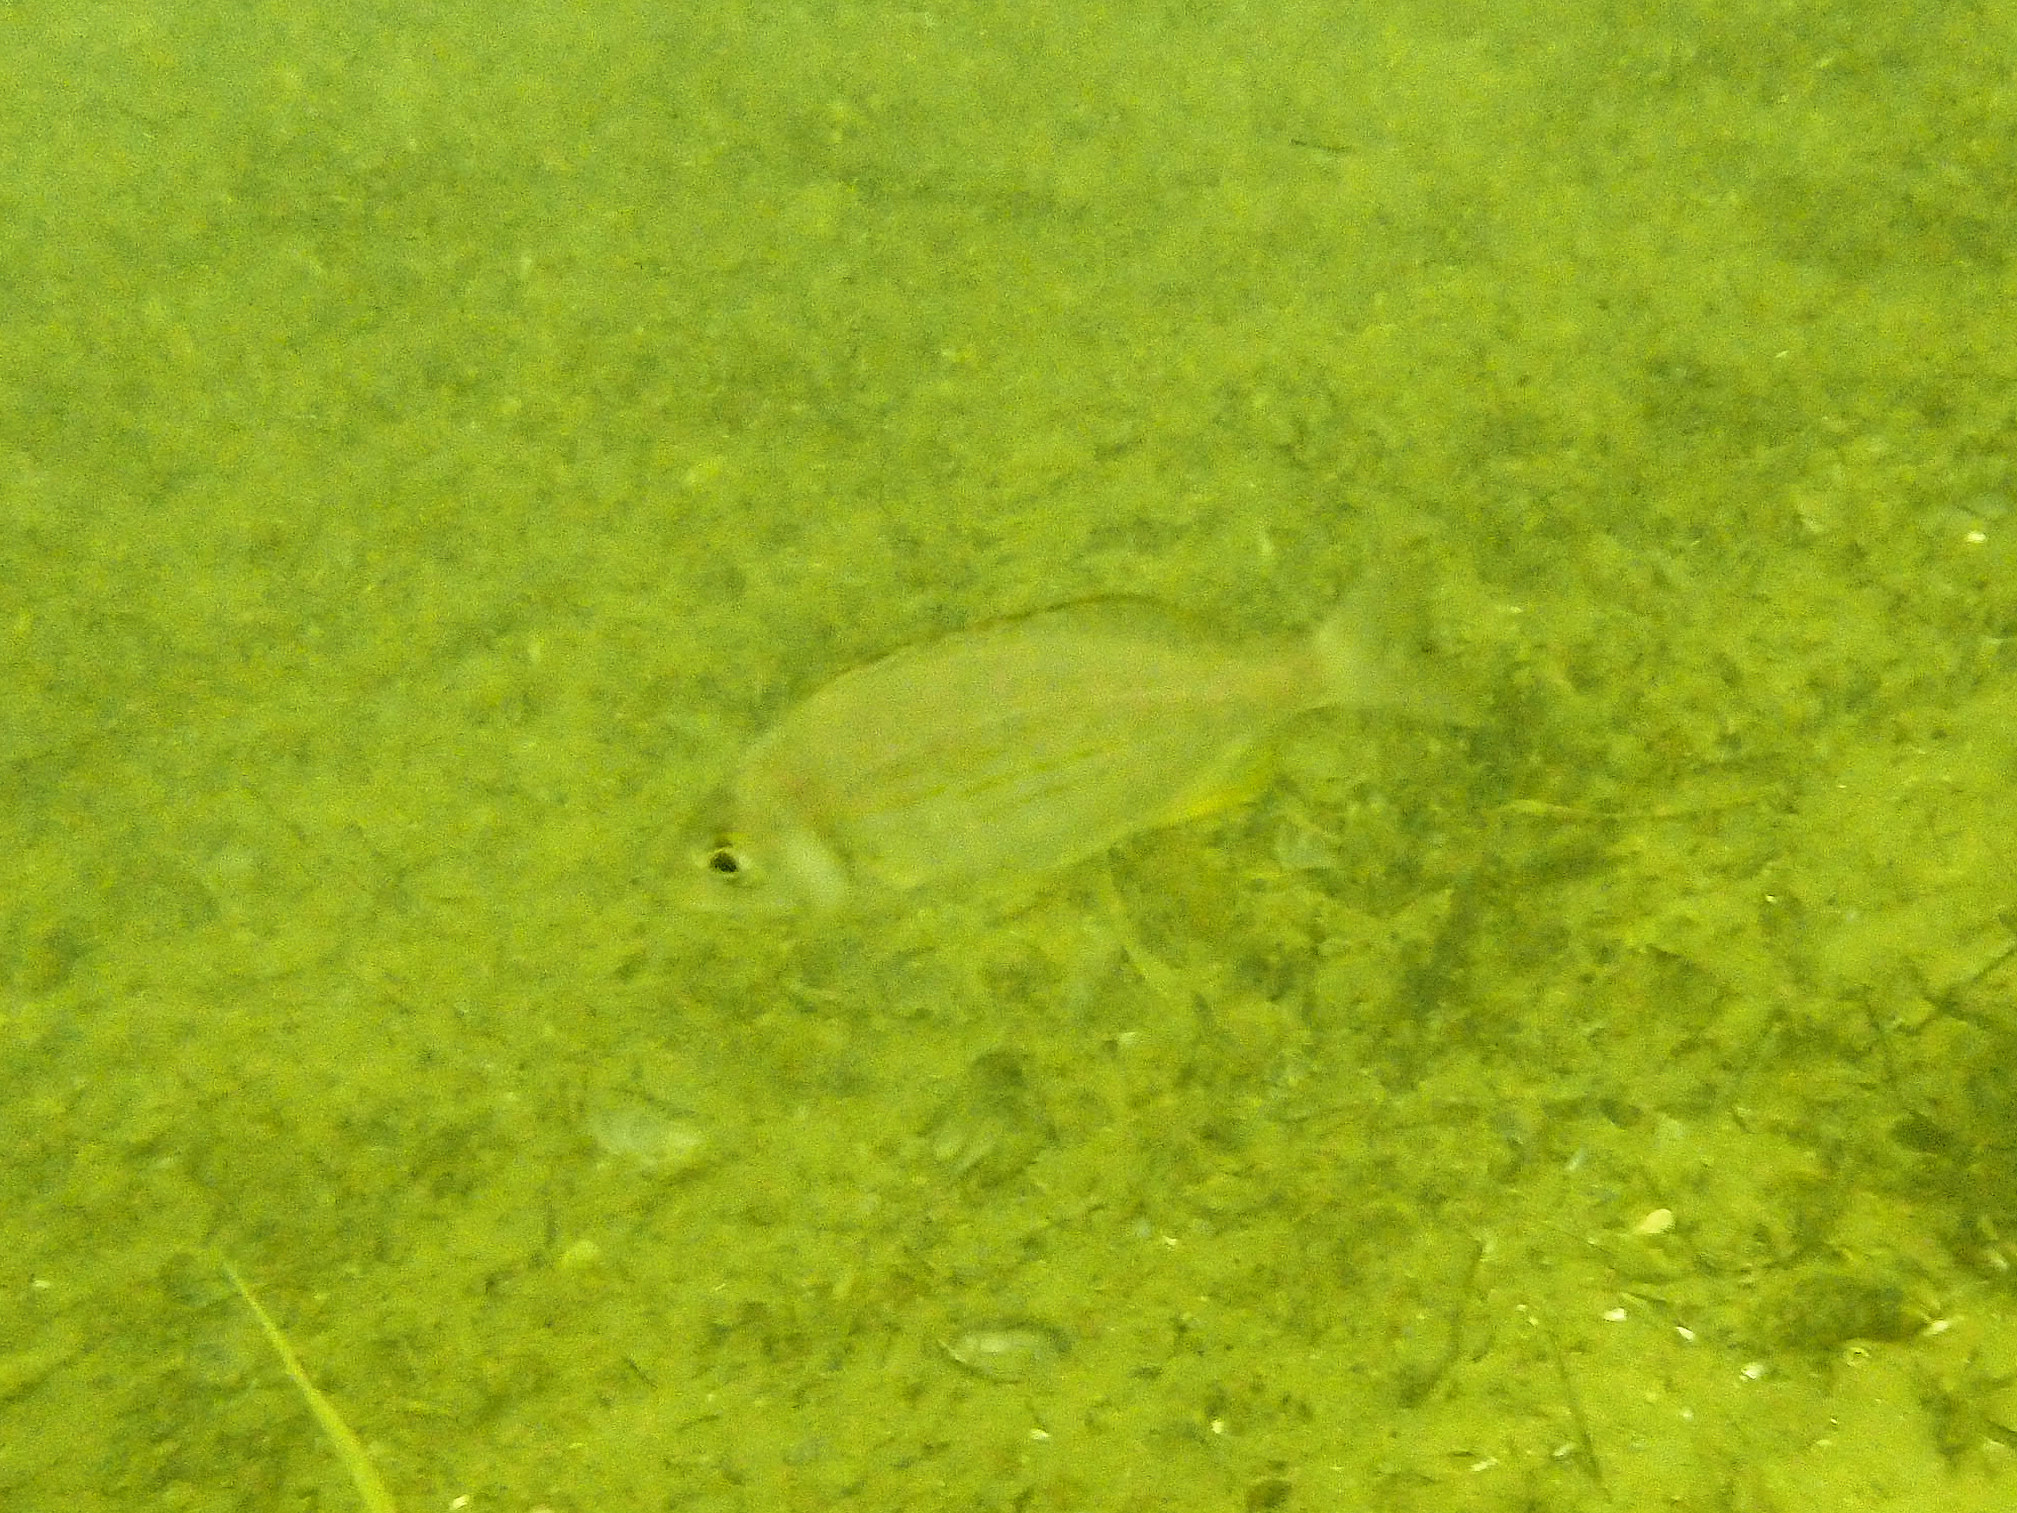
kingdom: Animalia
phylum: Chordata
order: Perciformes
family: Sparidae
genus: Spondyliosoma
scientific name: Spondyliosoma cantharus
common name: Black seabream
